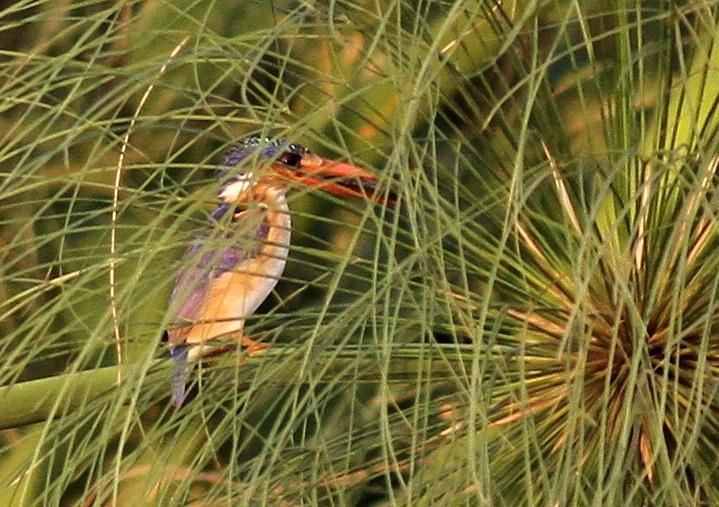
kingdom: Animalia
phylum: Chordata
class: Aves
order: Coraciiformes
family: Alcedinidae
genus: Corythornis
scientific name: Corythornis cristatus
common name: Malachite kingfisher
